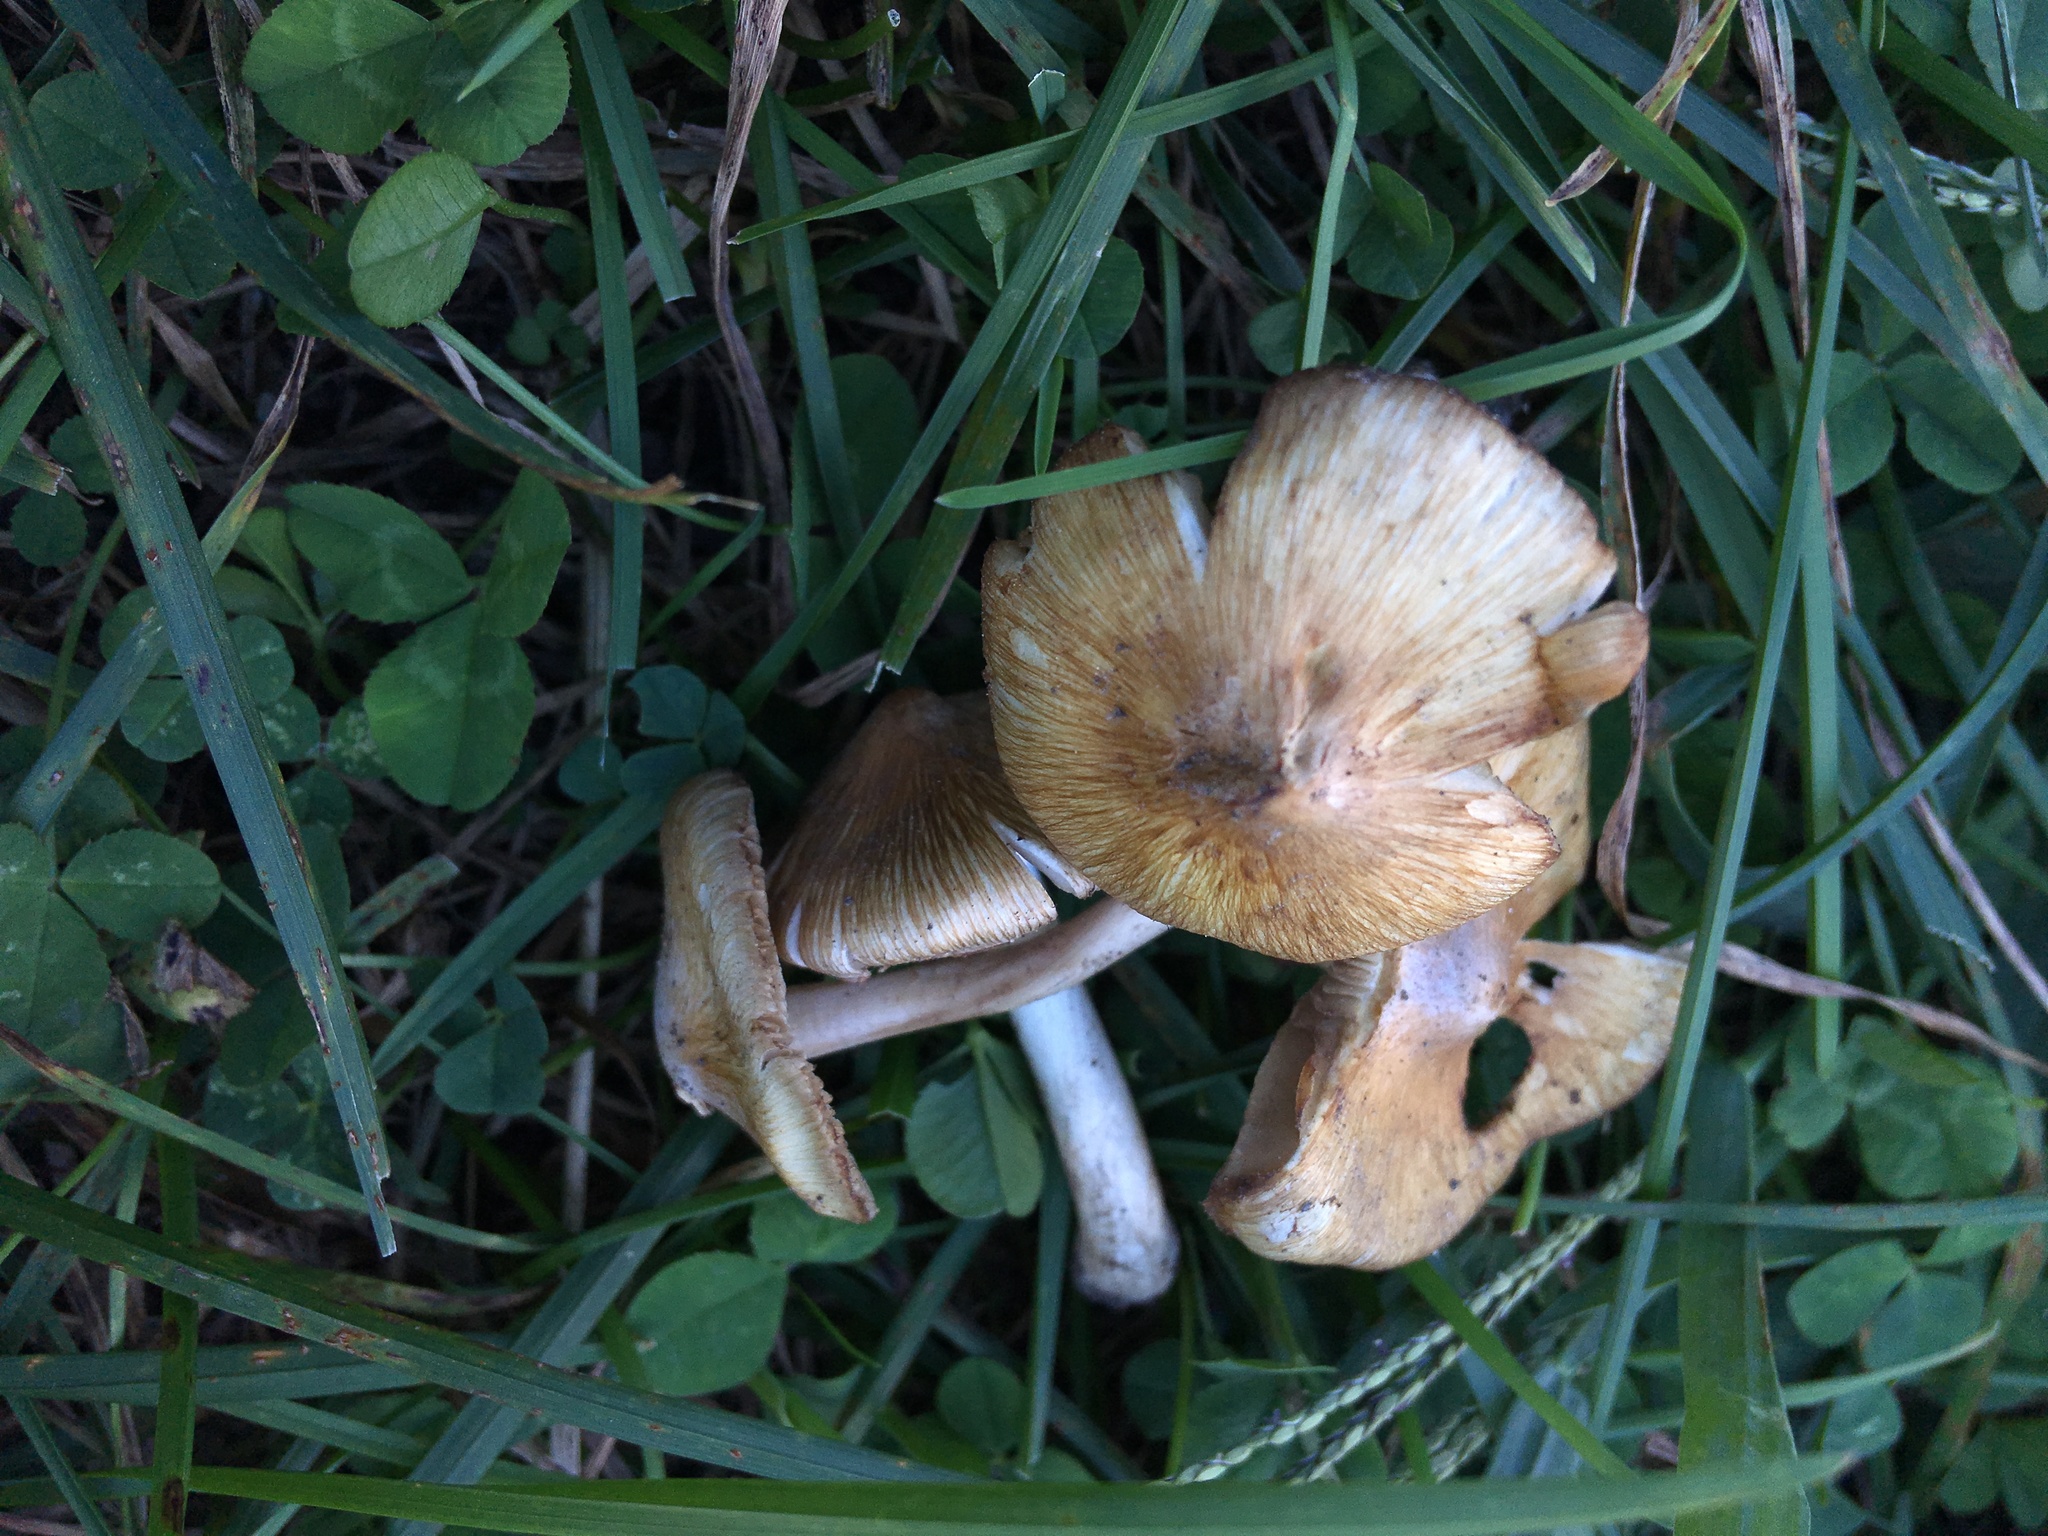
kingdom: Fungi
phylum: Basidiomycota
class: Agaricomycetes
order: Agaricales
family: Inocybaceae
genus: Pseudosperma
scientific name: Pseudosperma curreyi
